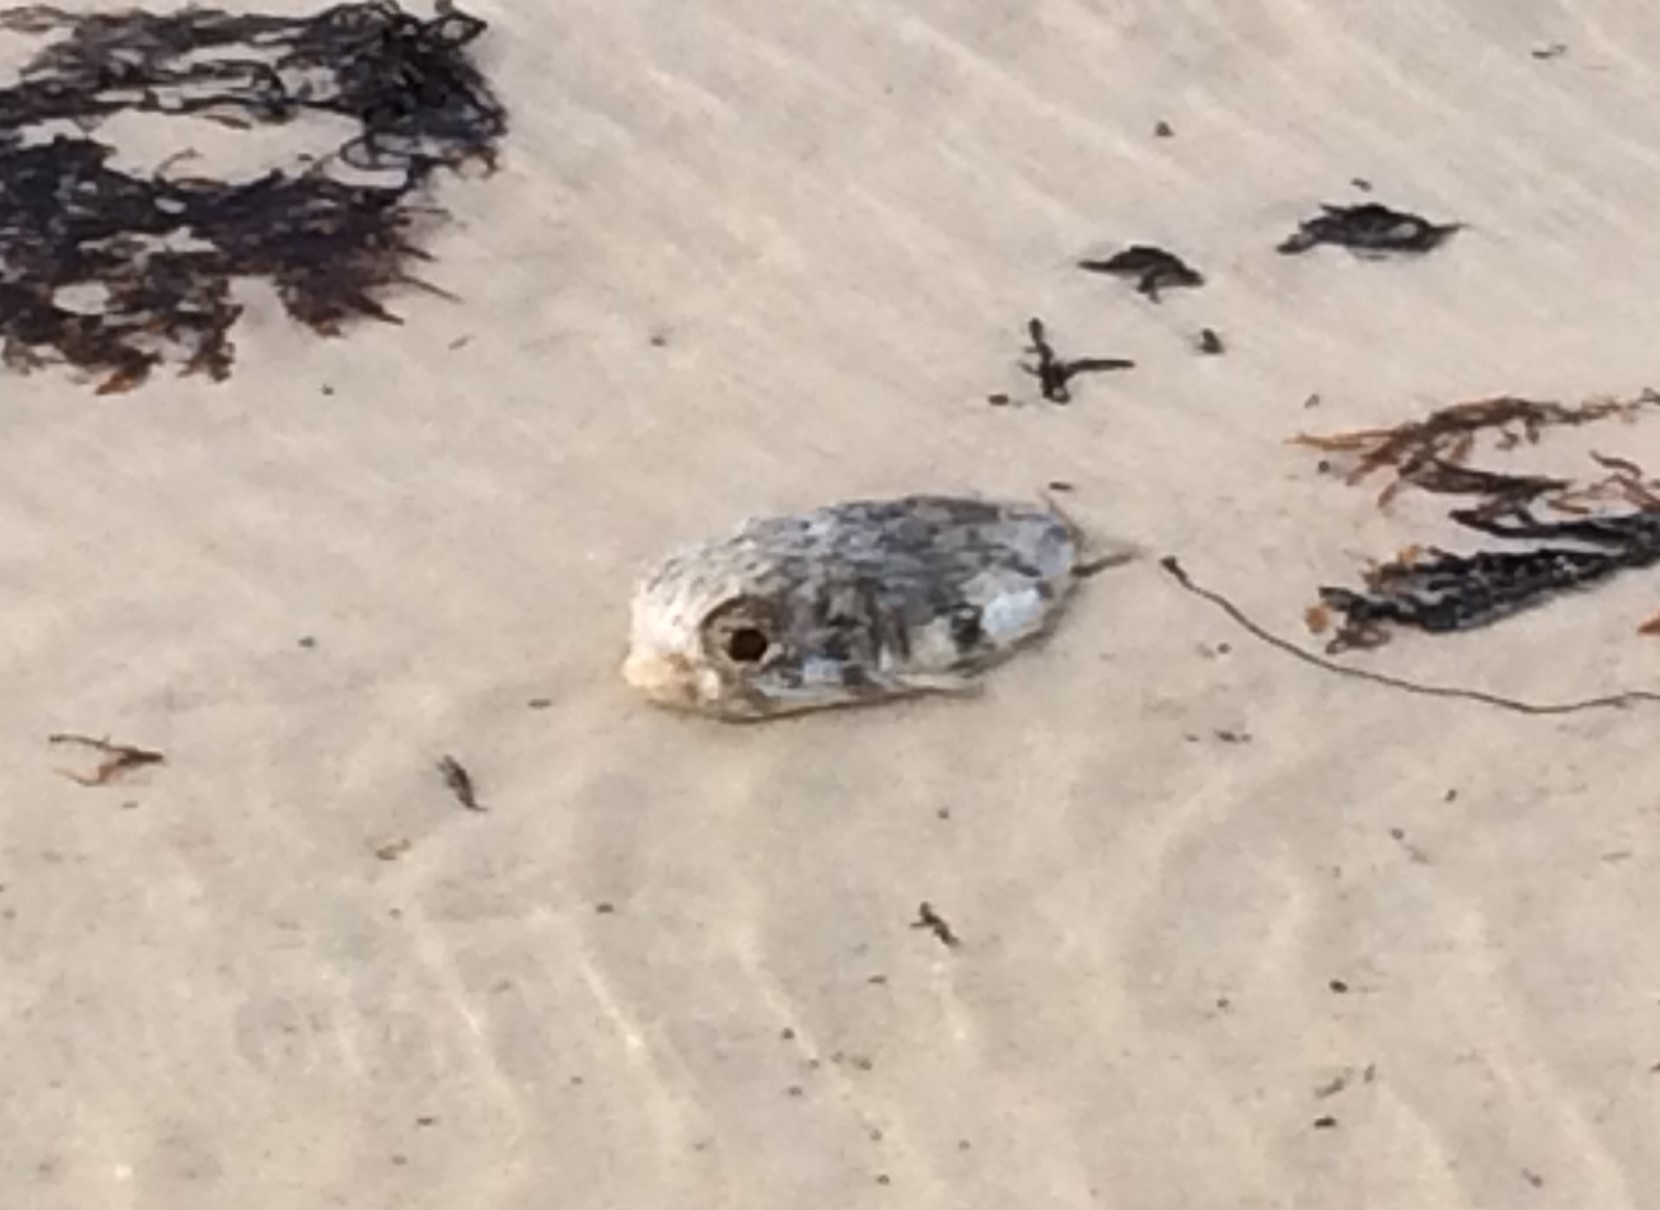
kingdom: Animalia
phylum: Chordata
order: Tetraodontiformes
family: Diodontidae
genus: Diodon
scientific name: Diodon nicthemerus
